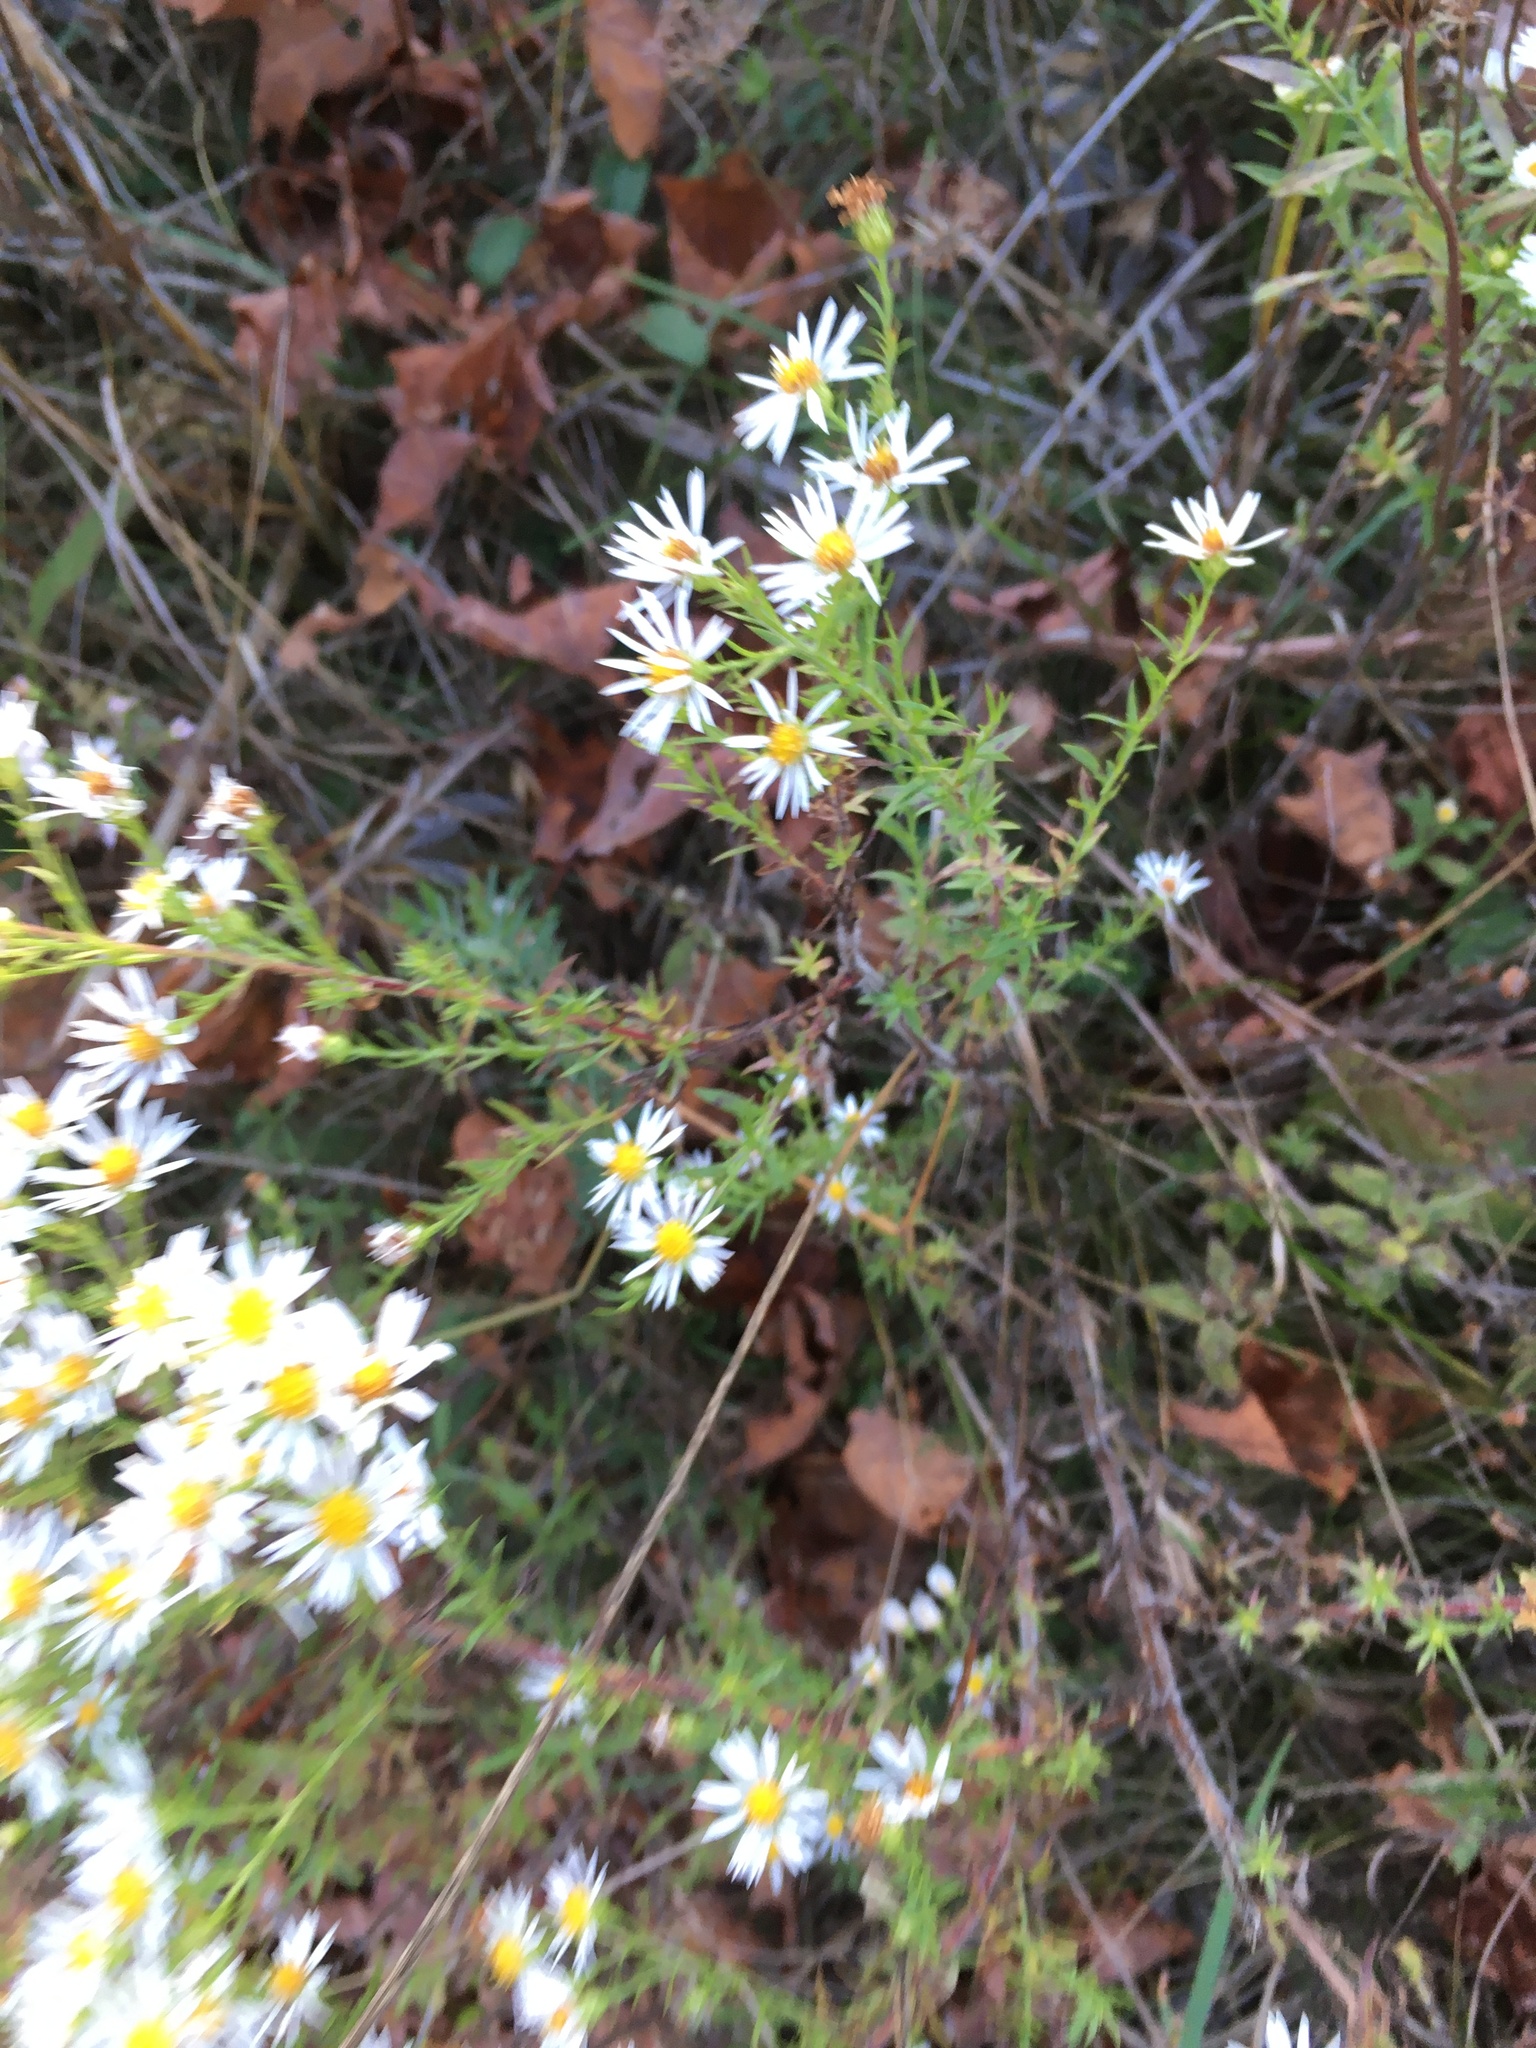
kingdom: Plantae
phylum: Tracheophyta
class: Magnoliopsida
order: Asterales
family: Asteraceae
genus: Symphyotrichum
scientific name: Symphyotrichum
